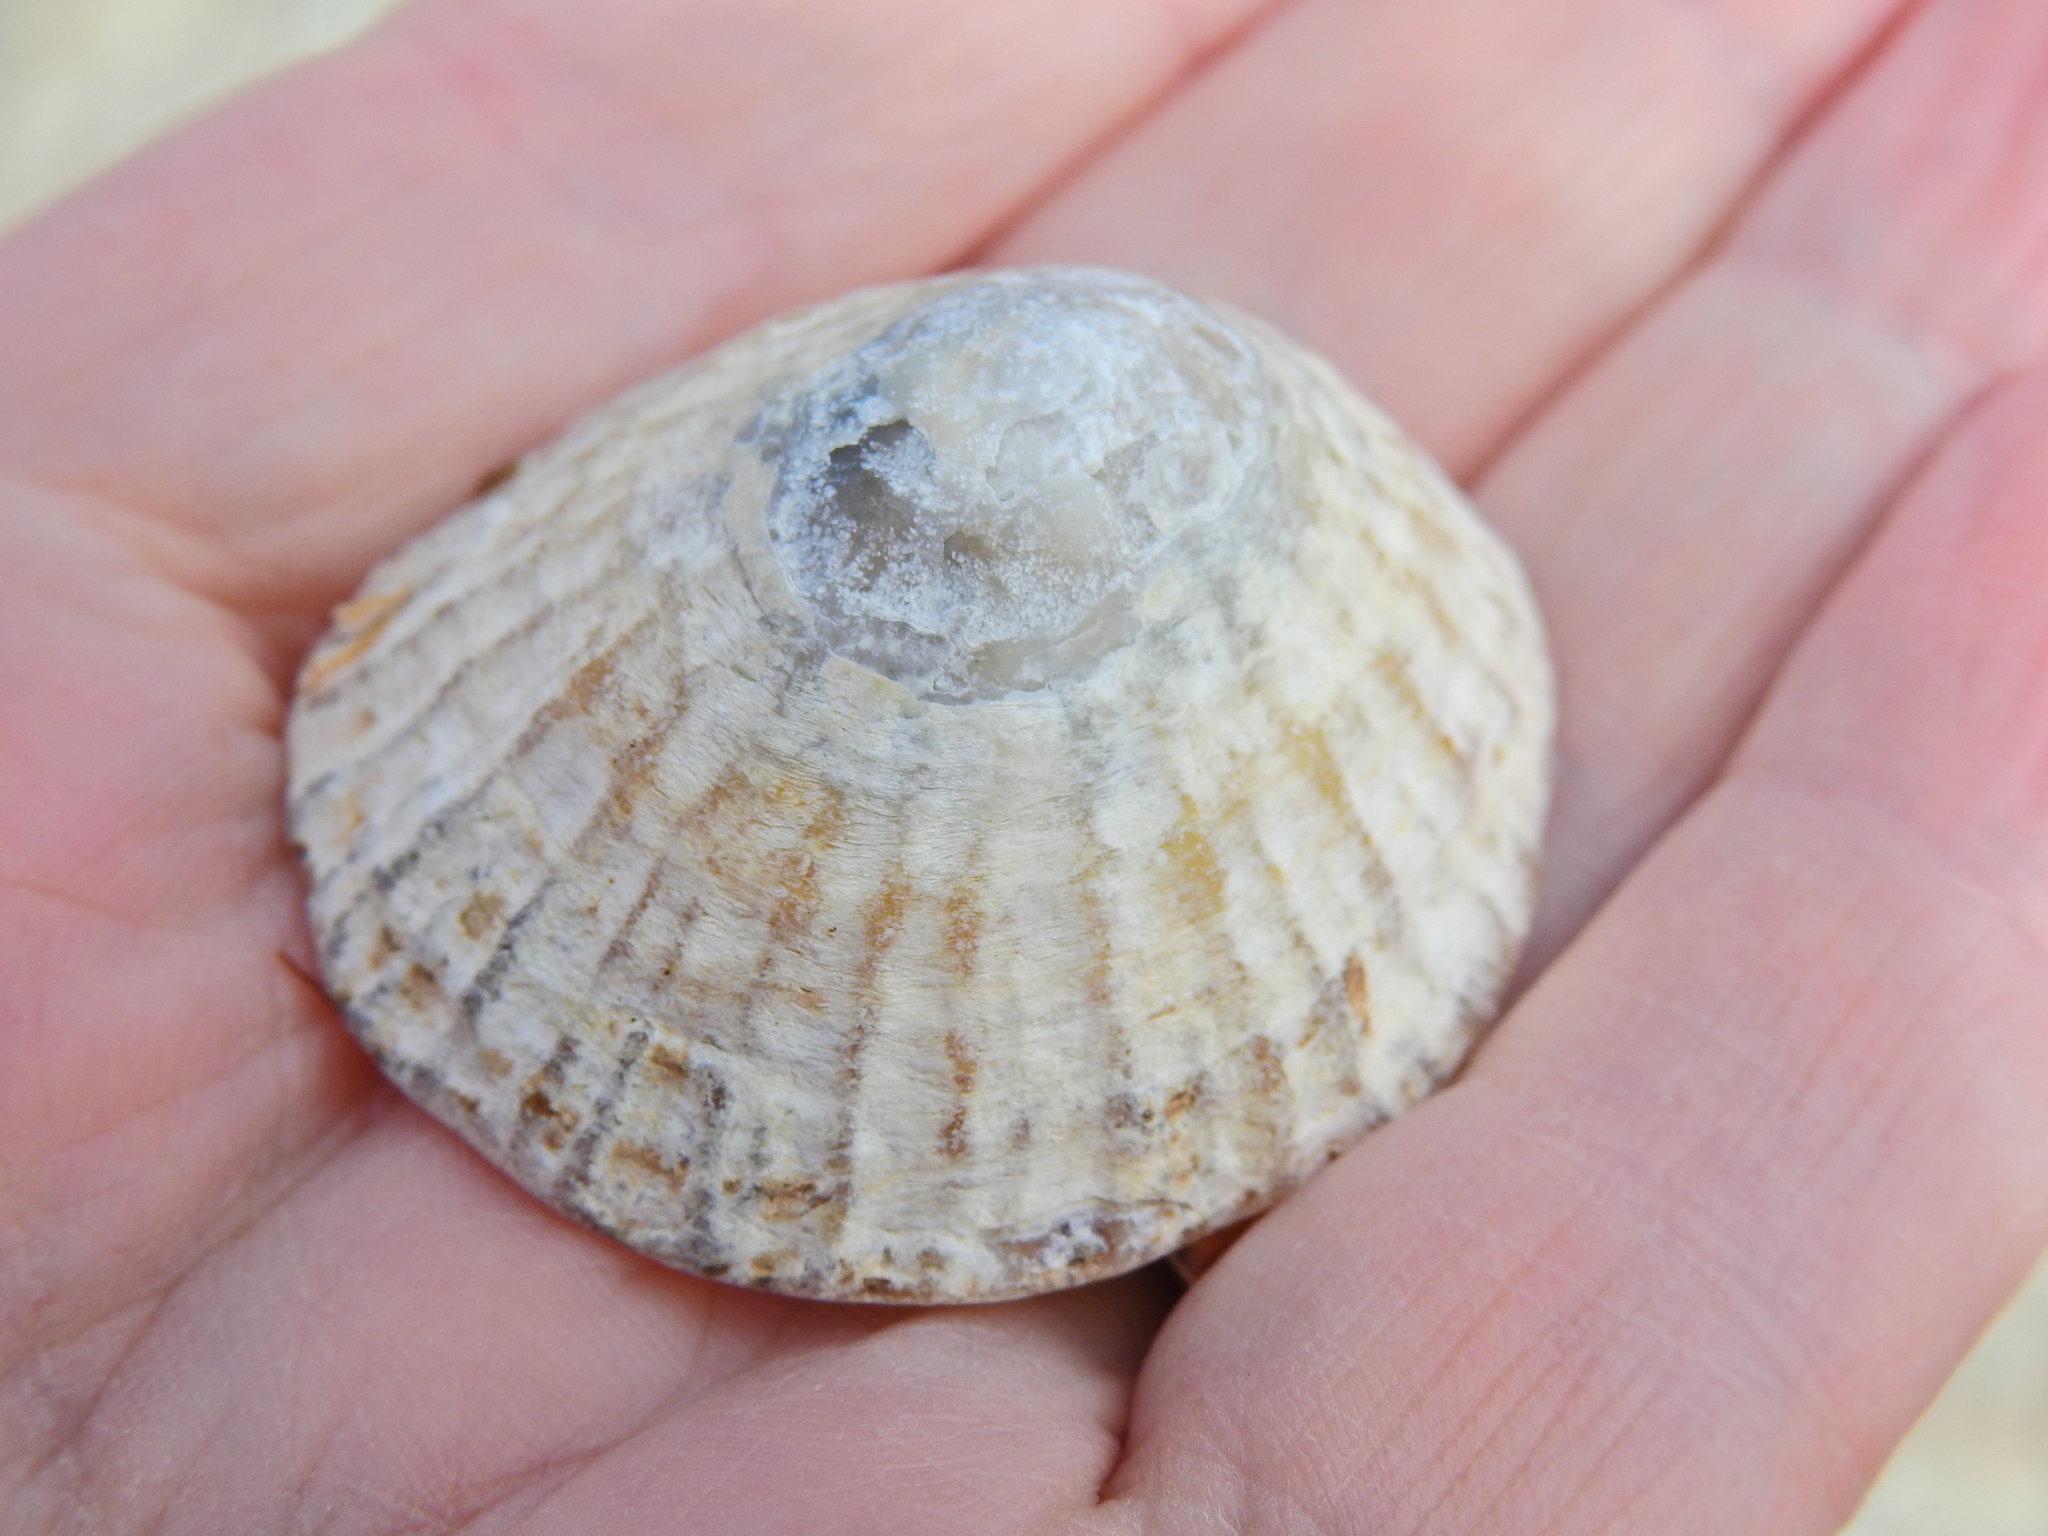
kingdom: Animalia
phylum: Mollusca
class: Gastropoda
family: Patellidae
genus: Patella
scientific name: Patella vulgata
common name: Common limpet
